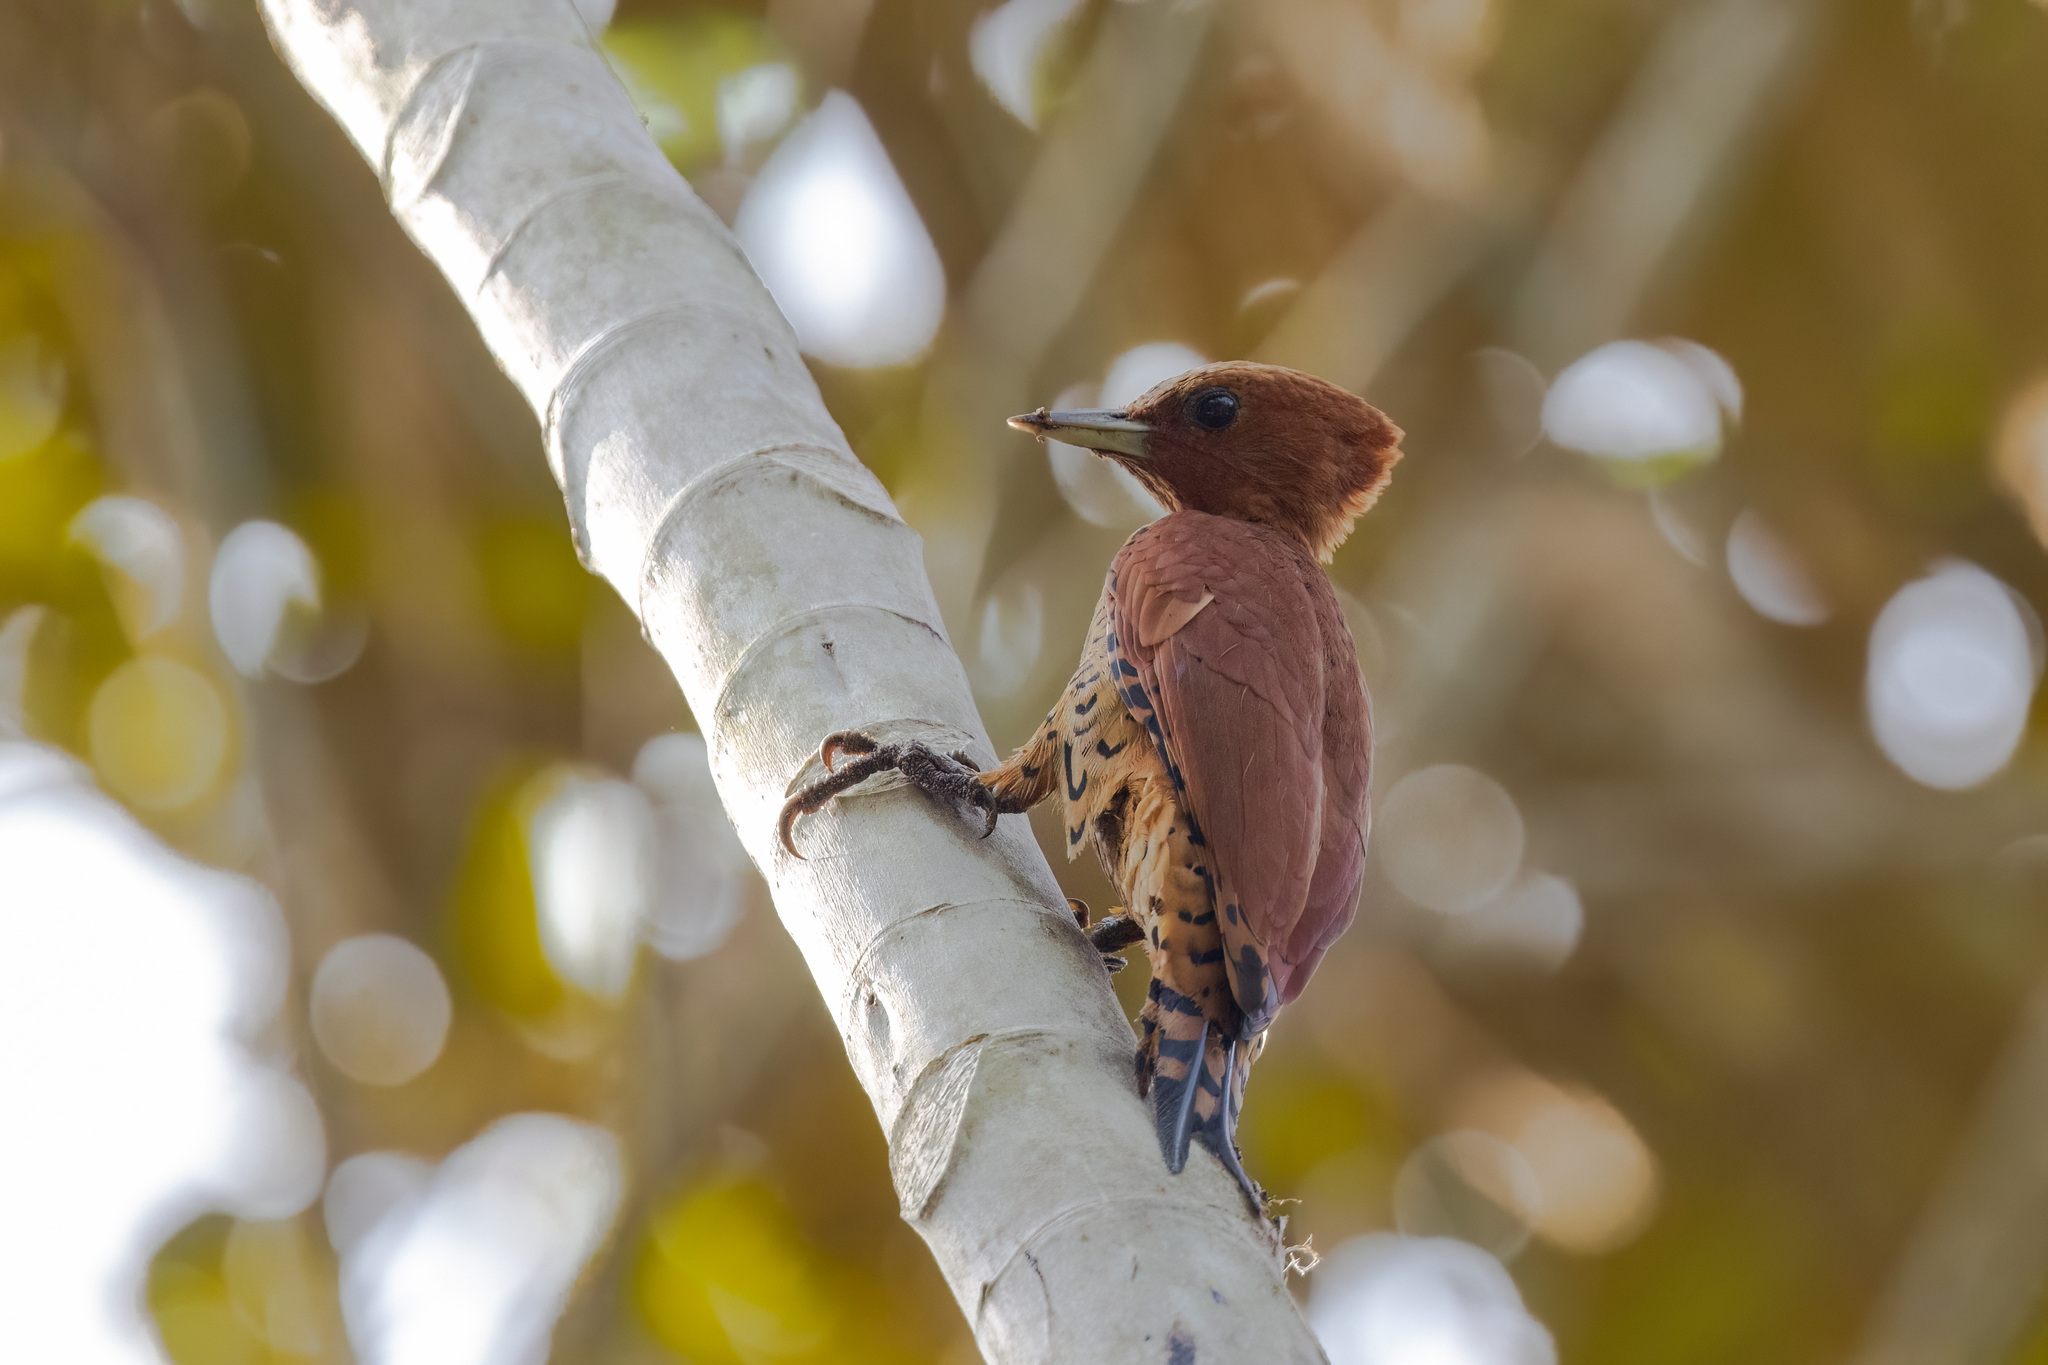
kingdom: Animalia
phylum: Chordata
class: Aves
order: Piciformes
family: Picidae
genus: Celeus
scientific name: Celeus loricatus
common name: Cinnamon woodpecker
